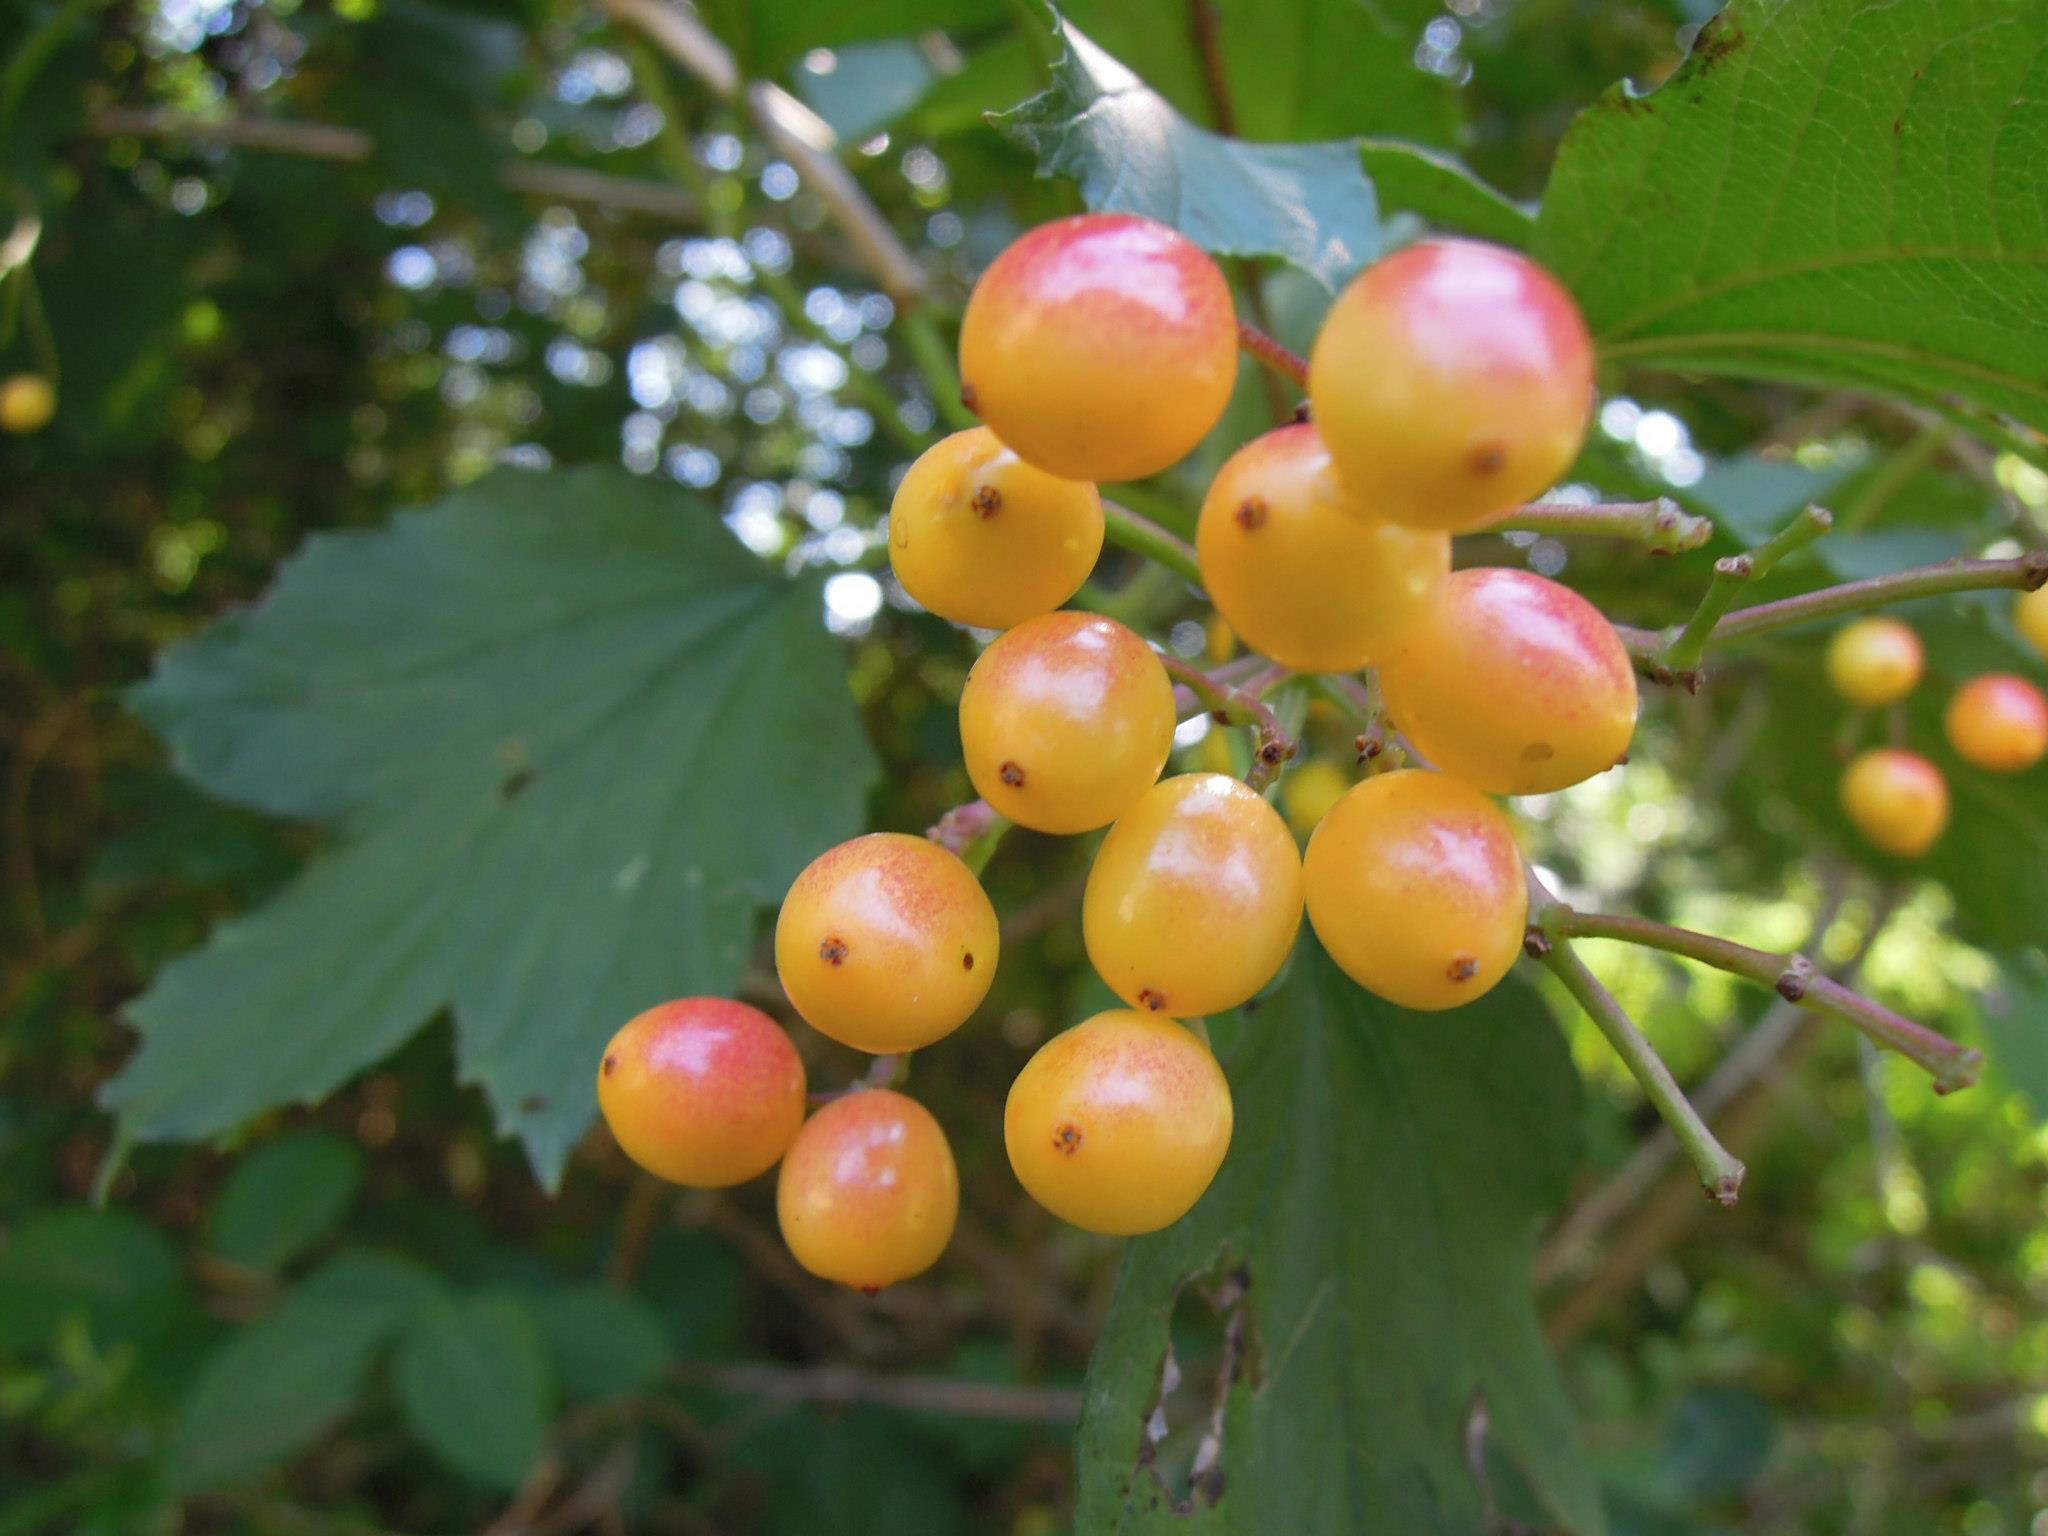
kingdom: Plantae
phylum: Tracheophyta
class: Magnoliopsida
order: Dipsacales
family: Viburnaceae
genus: Viburnum
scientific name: Viburnum opulus
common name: Guelder-rose
